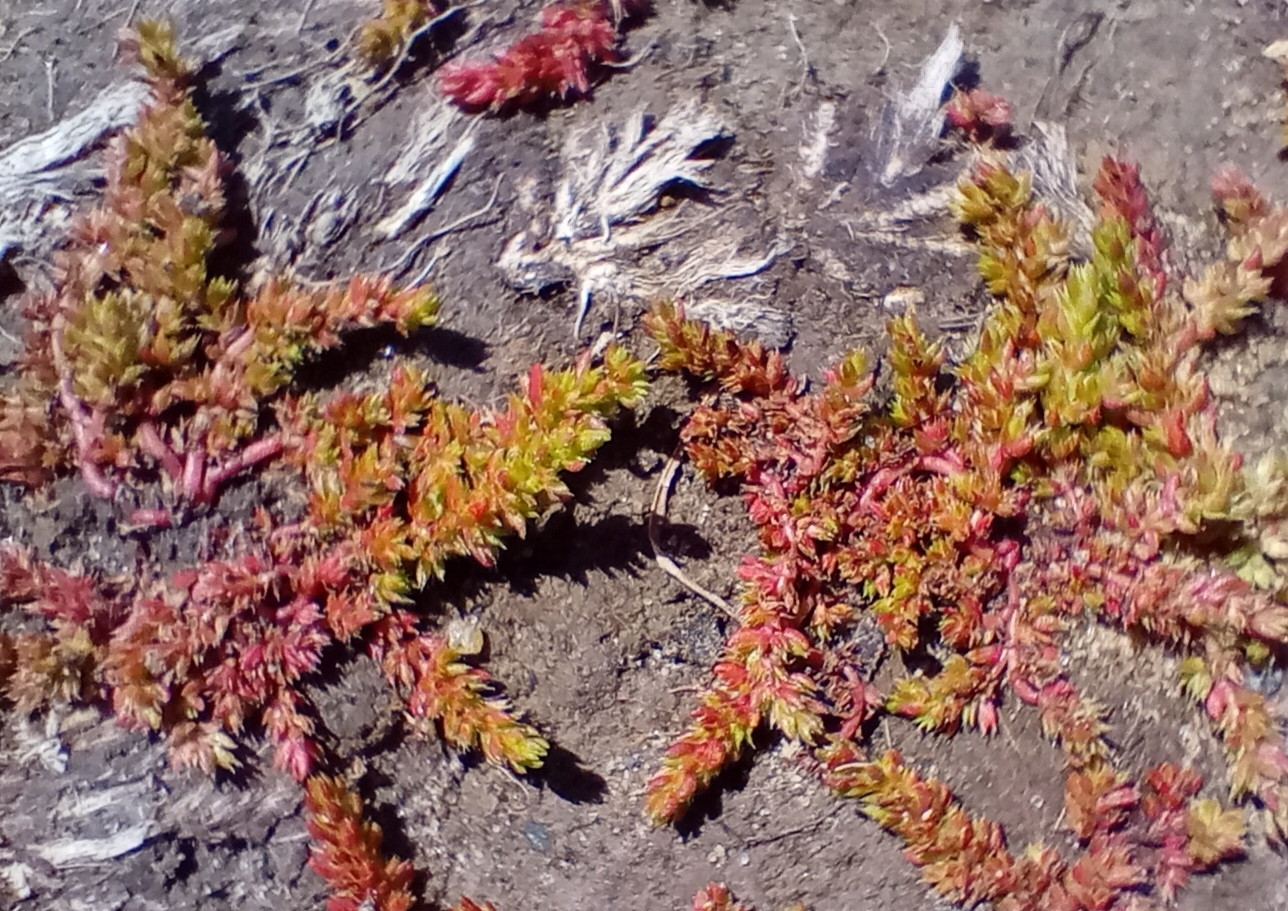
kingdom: Plantae
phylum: Tracheophyta
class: Magnoliopsida
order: Saxifragales
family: Crassulaceae
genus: Crassula
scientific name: Crassula alata
